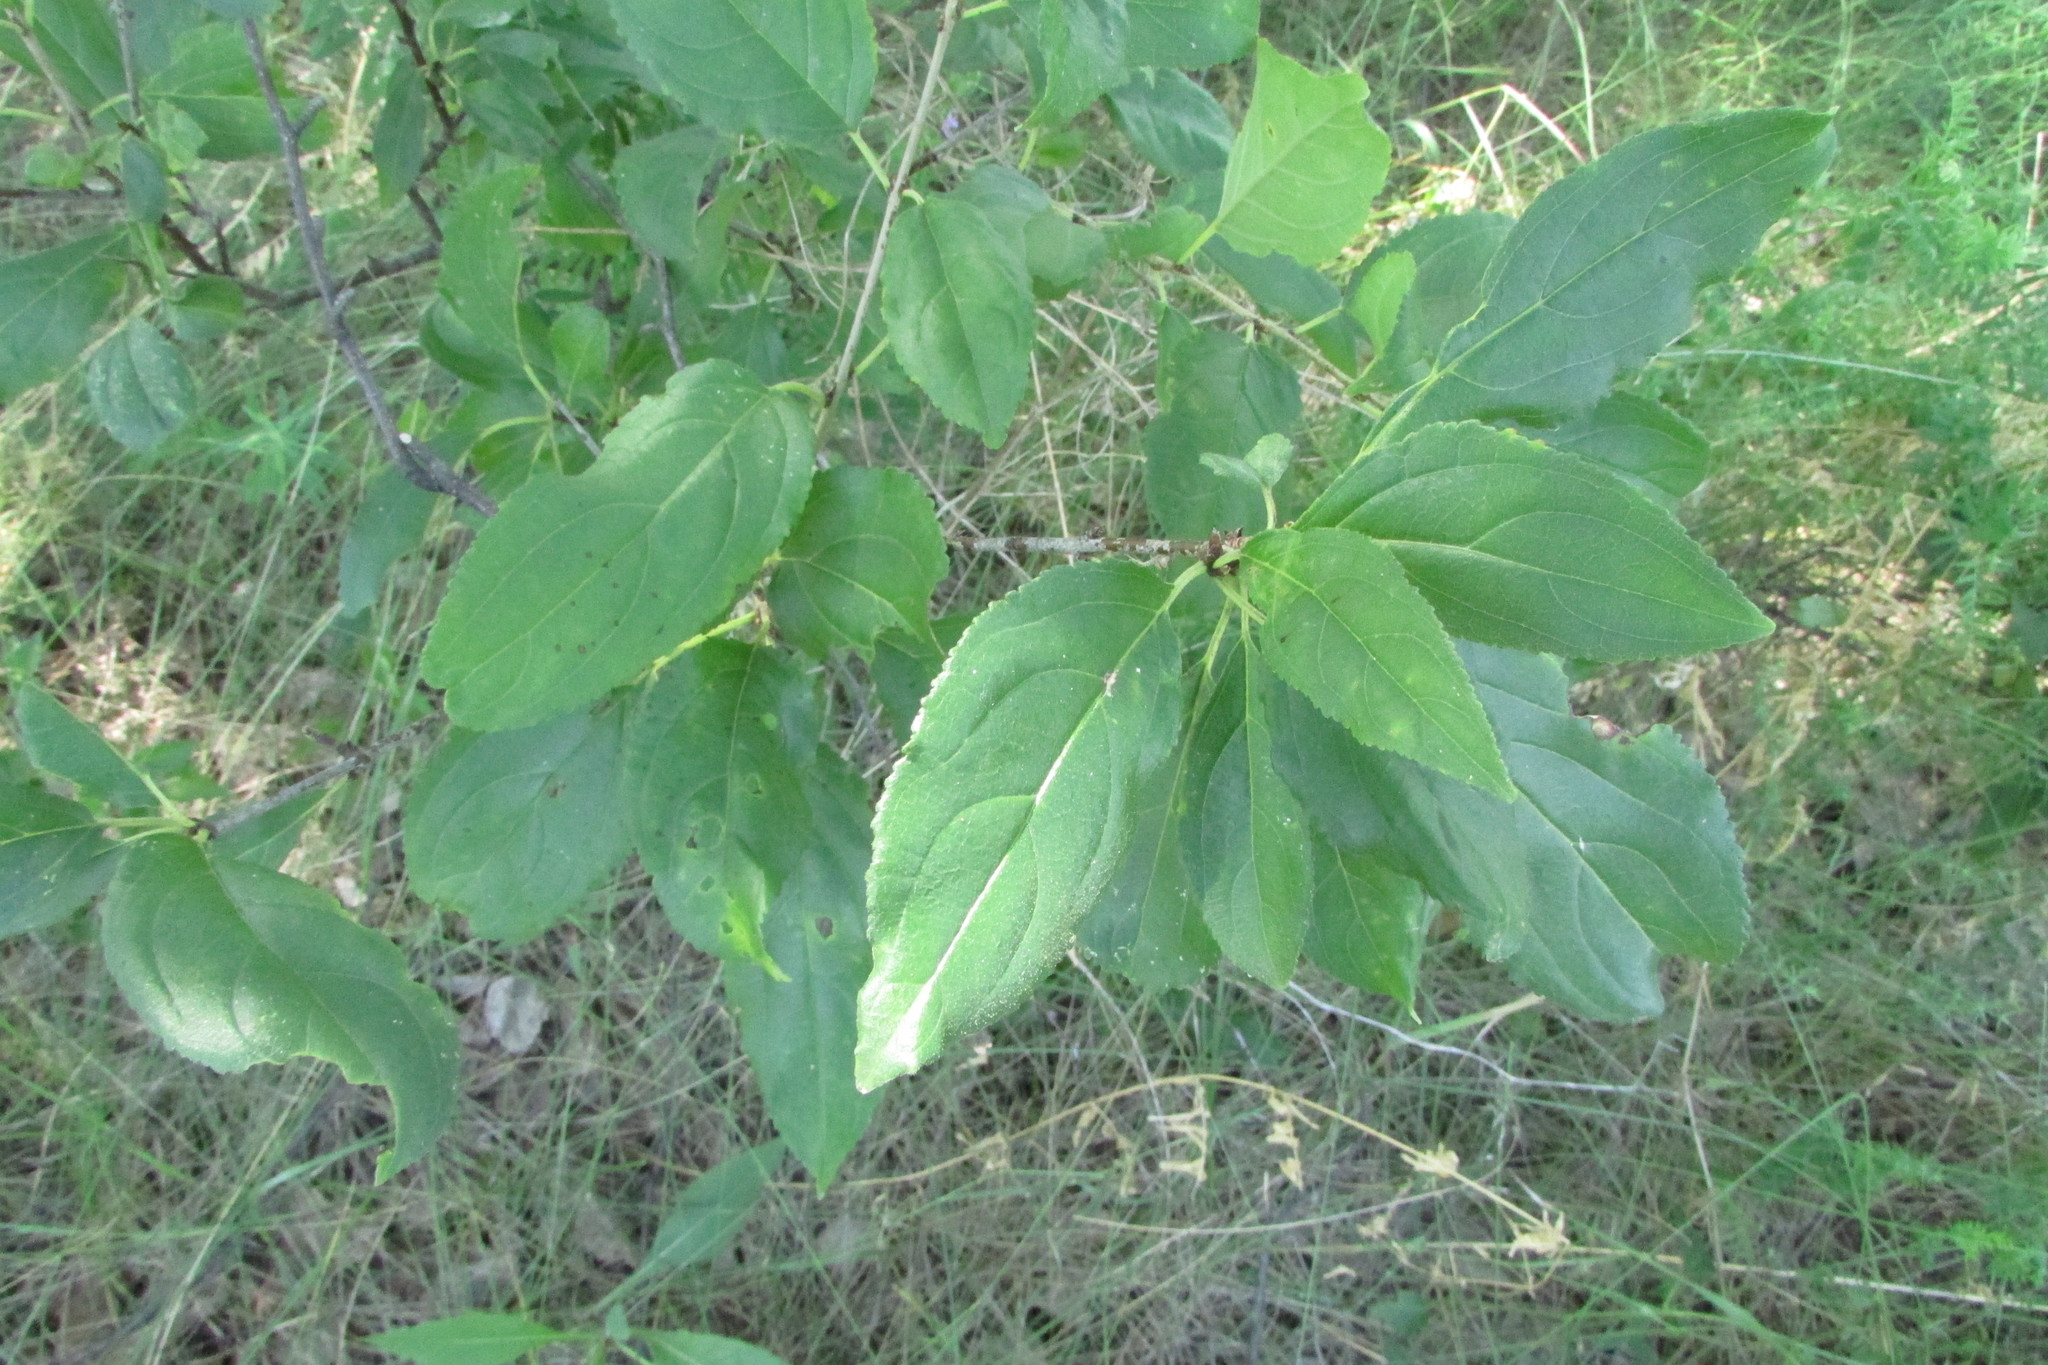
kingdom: Plantae
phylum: Tracheophyta
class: Magnoliopsida
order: Rosales
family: Rhamnaceae
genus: Rhamnus
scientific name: Rhamnus cathartica
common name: Common buckthorn
